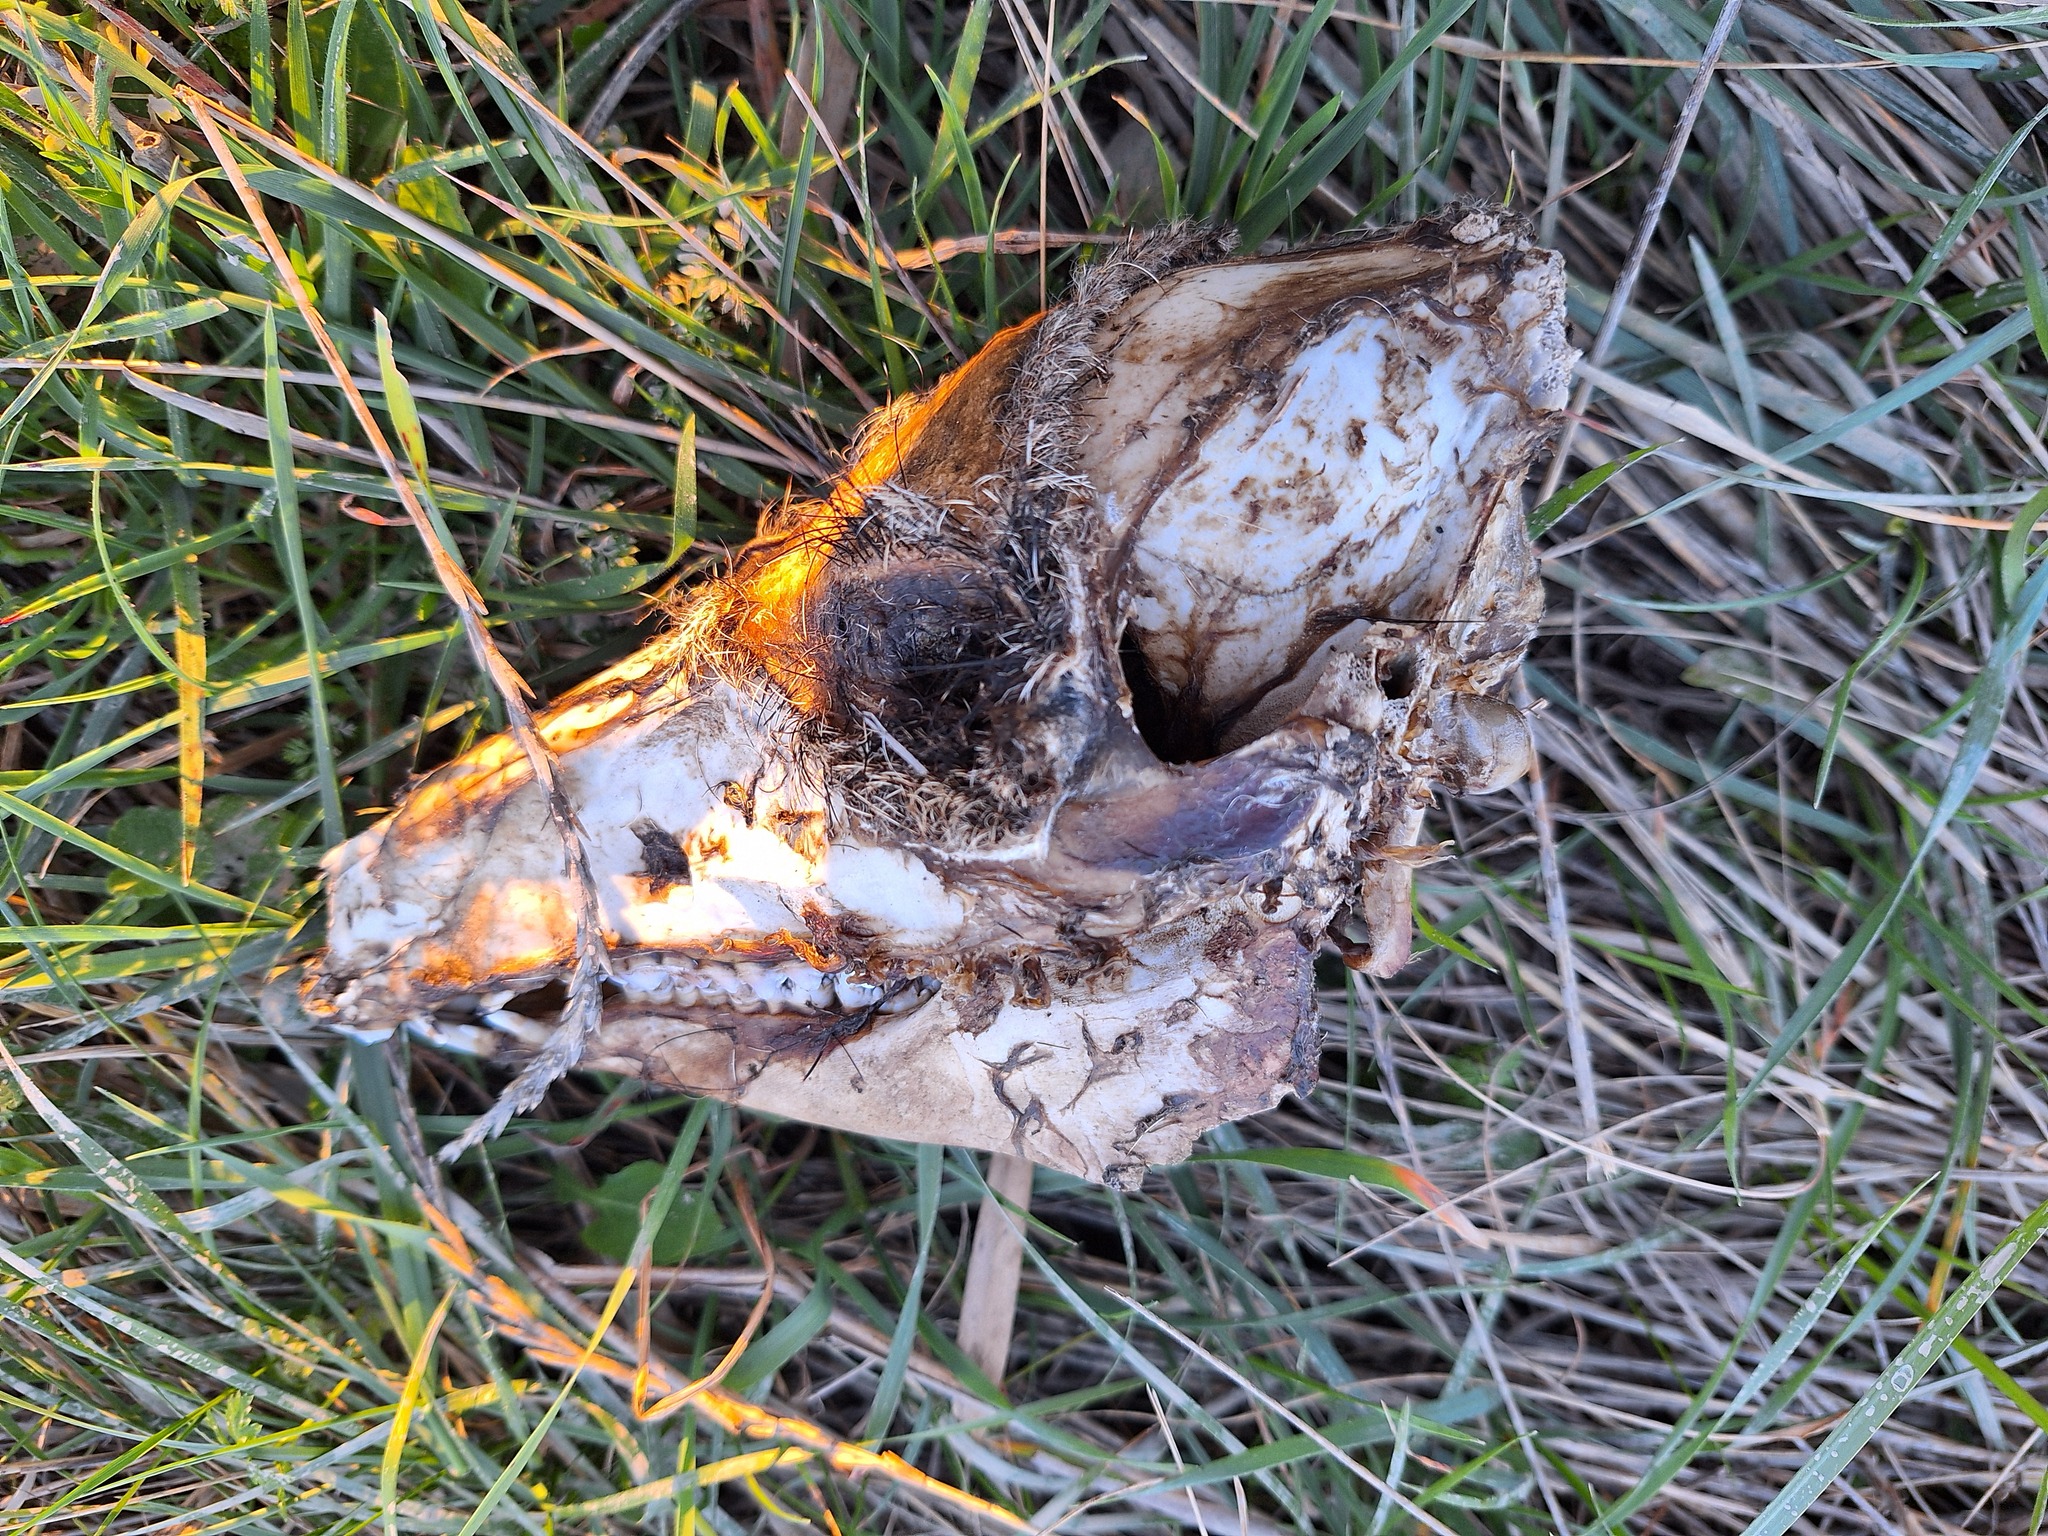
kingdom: Animalia
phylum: Chordata
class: Mammalia
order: Artiodactyla
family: Suidae
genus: Sus
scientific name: Sus scrofa
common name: Wild boar
